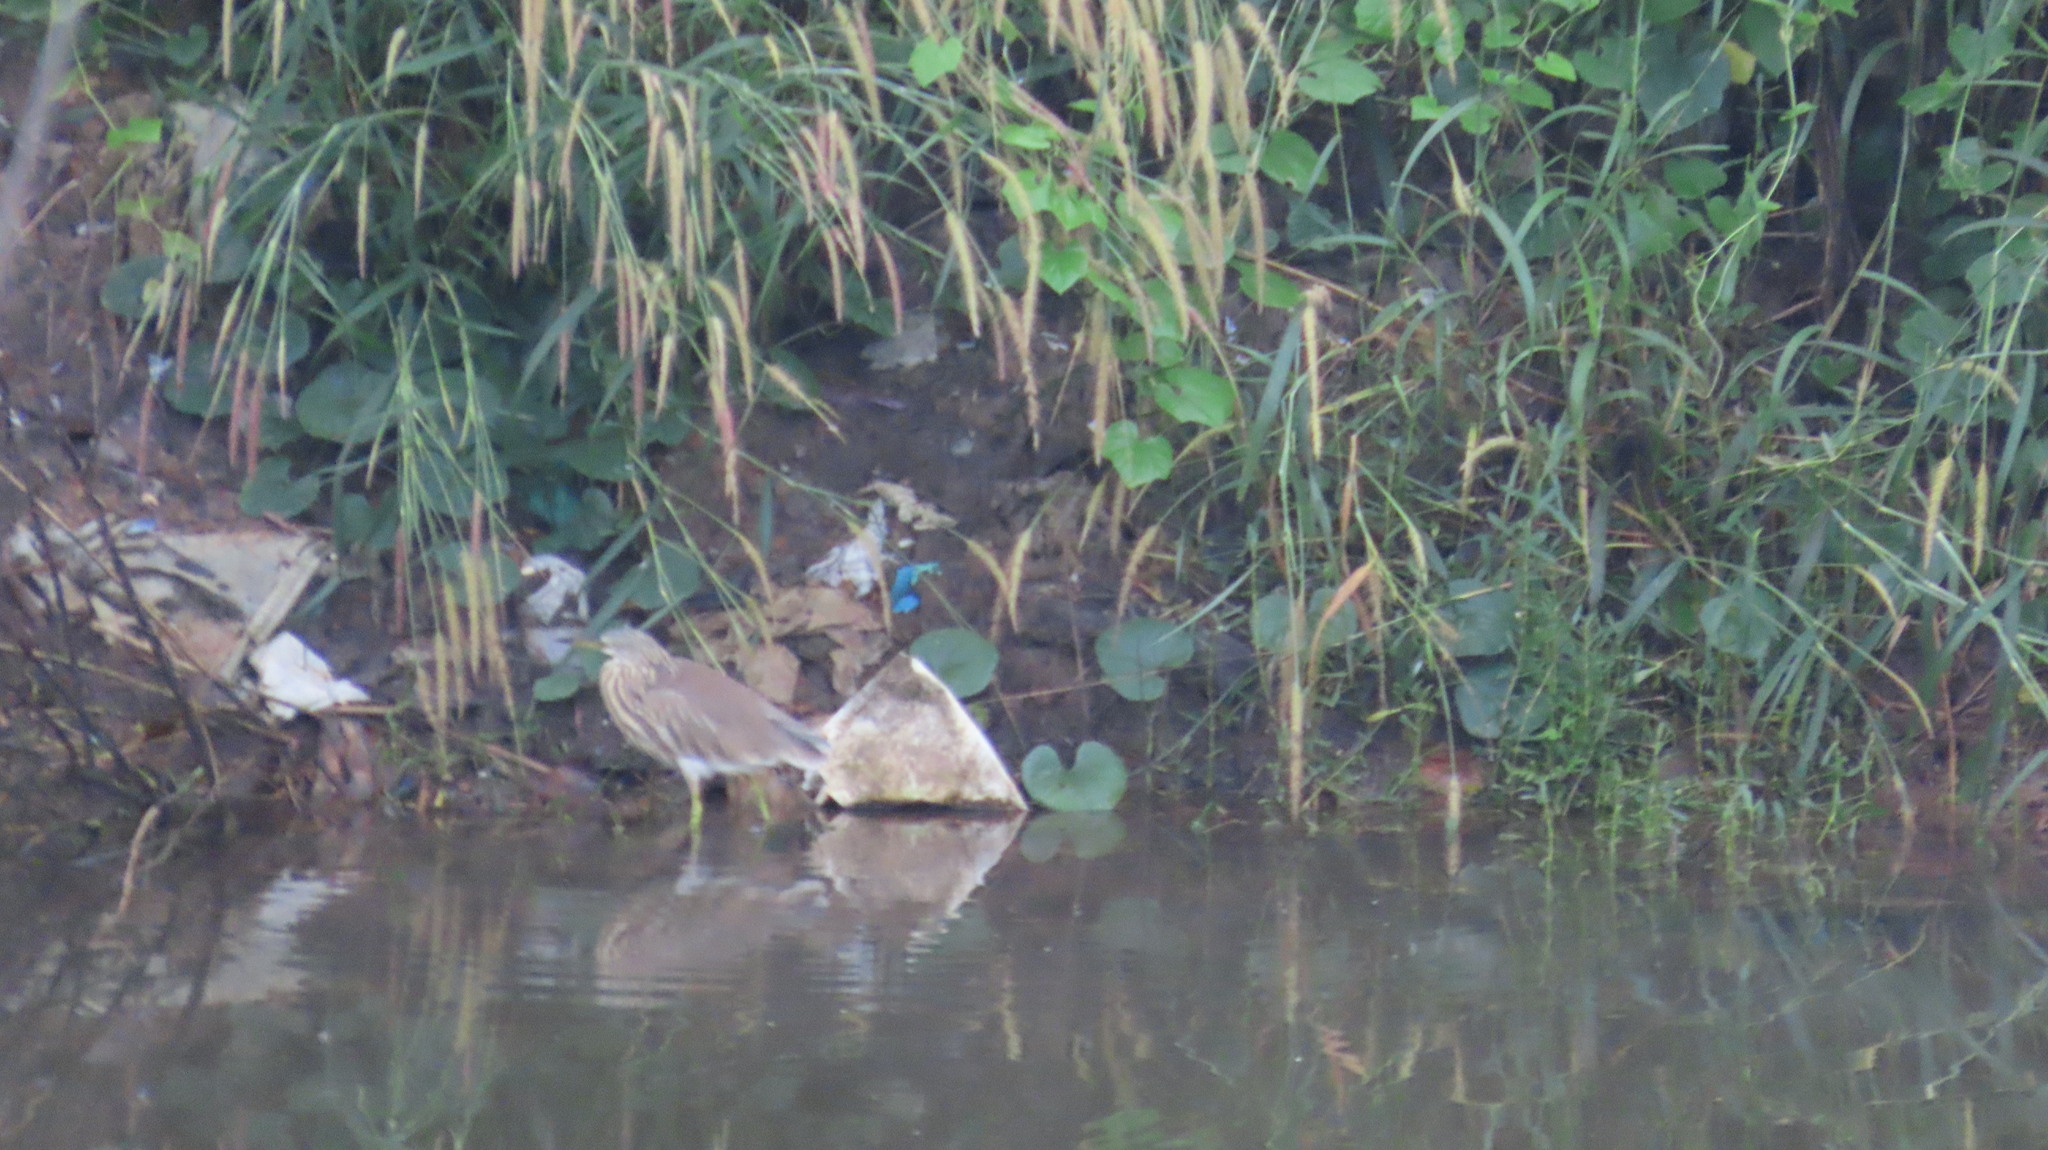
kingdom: Animalia
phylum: Chordata
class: Aves
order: Pelecaniformes
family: Ardeidae
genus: Ardeola
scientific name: Ardeola grayii
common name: Indian pond heron
